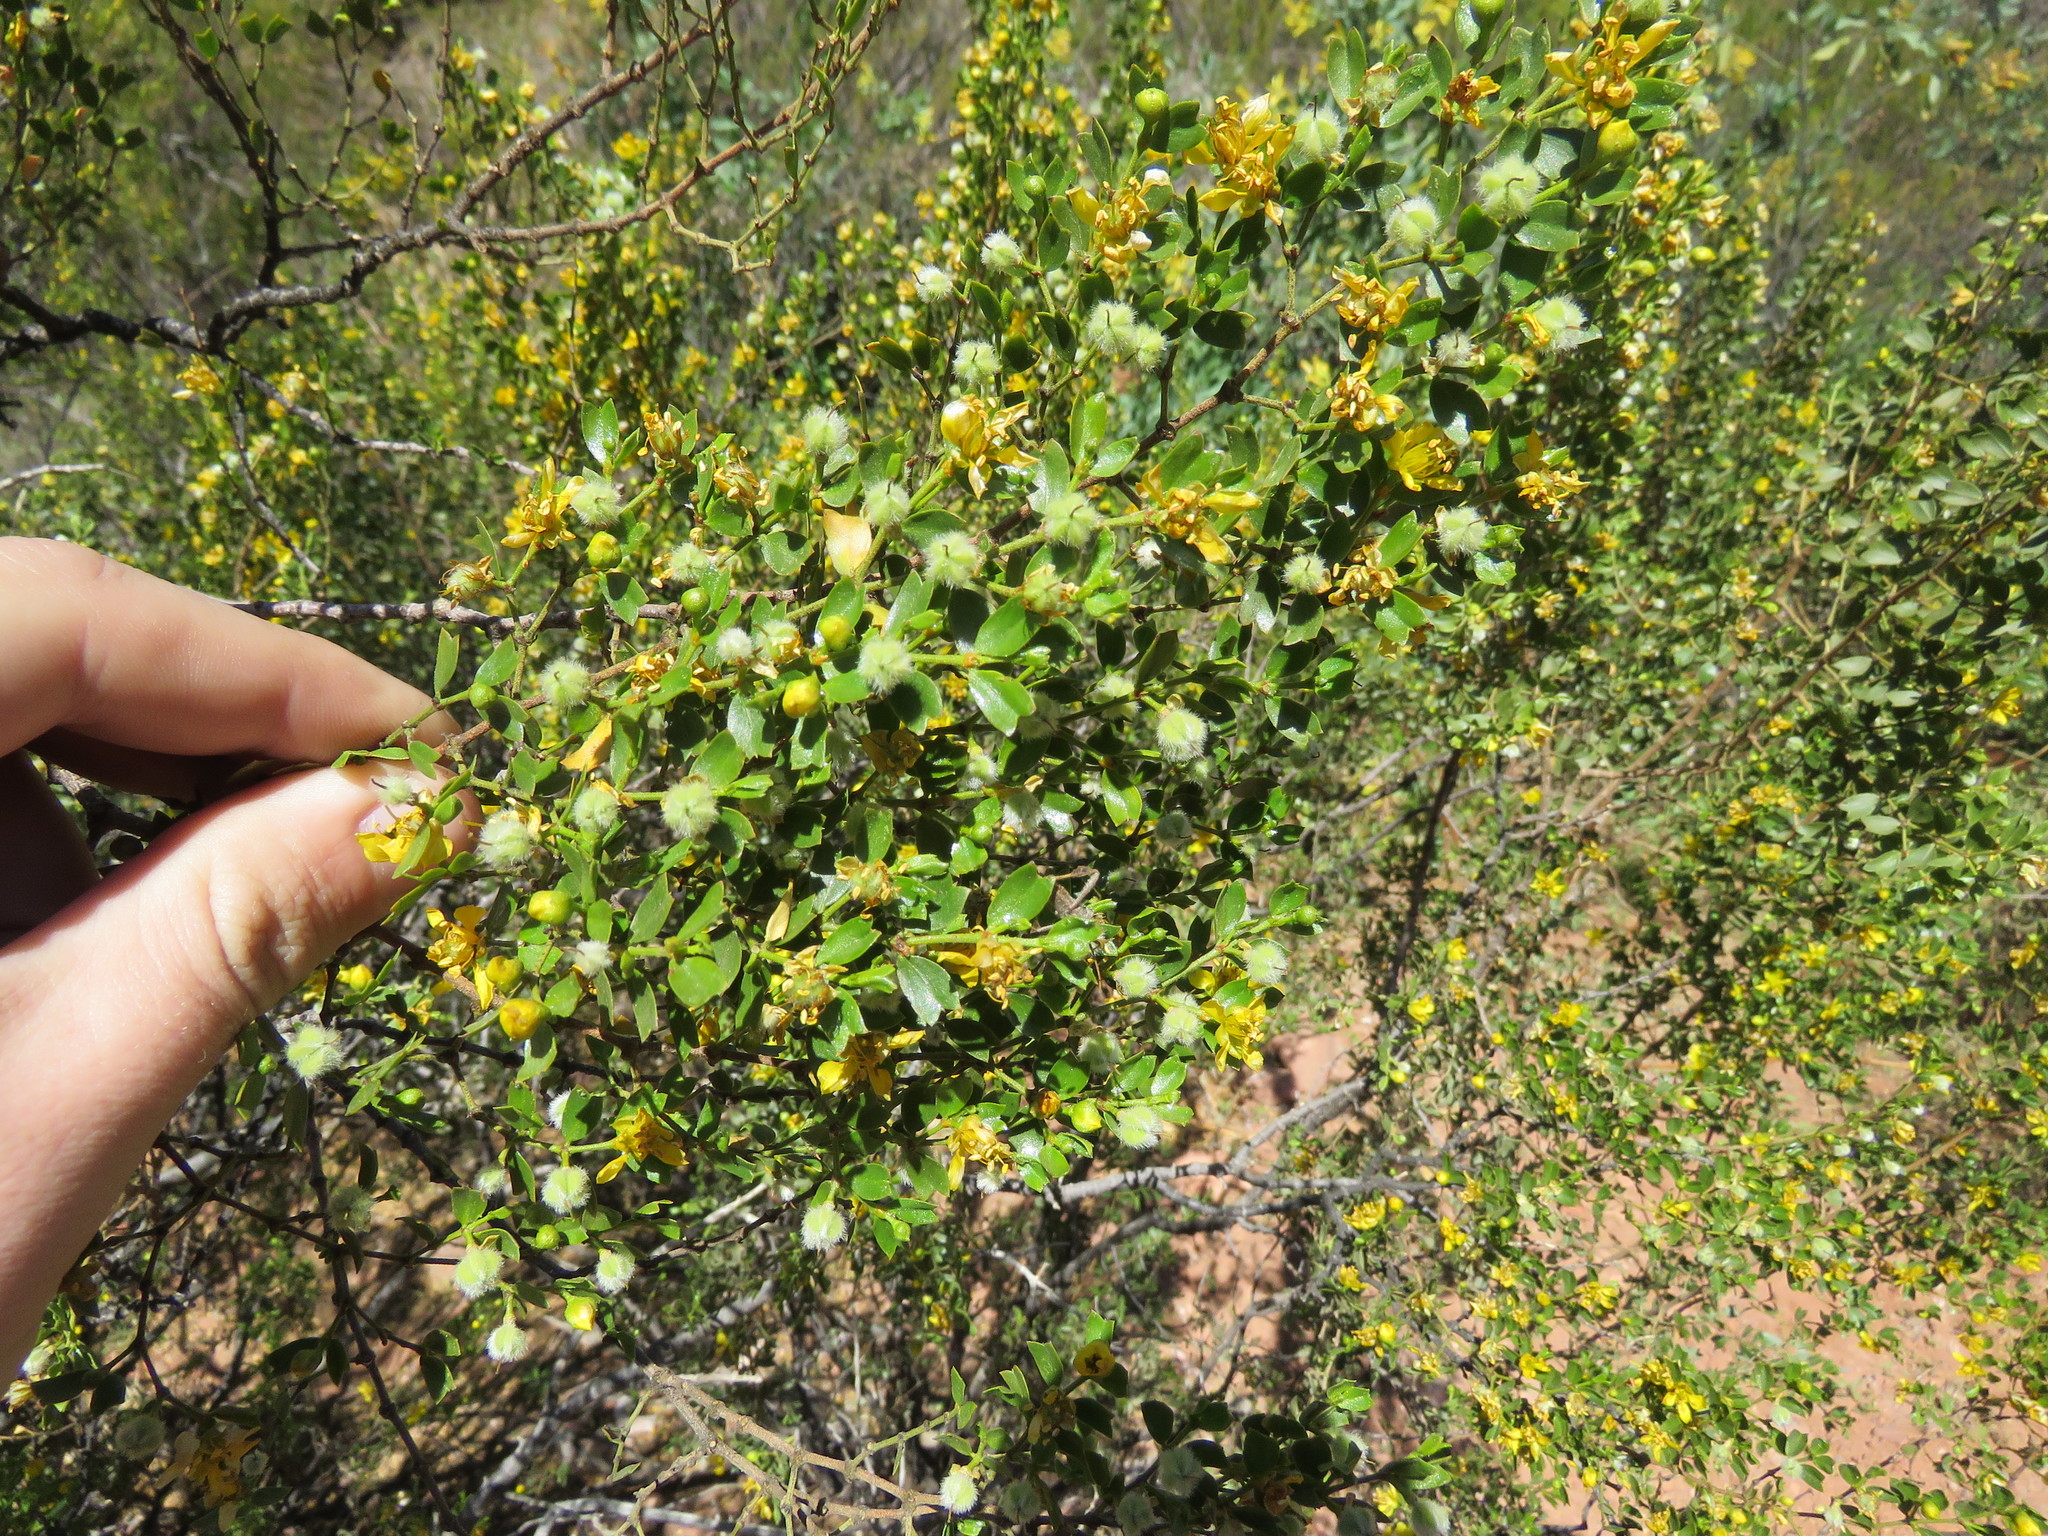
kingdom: Plantae
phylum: Tracheophyta
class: Magnoliopsida
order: Zygophyllales
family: Zygophyllaceae
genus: Larrea
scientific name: Larrea cuneifolia
